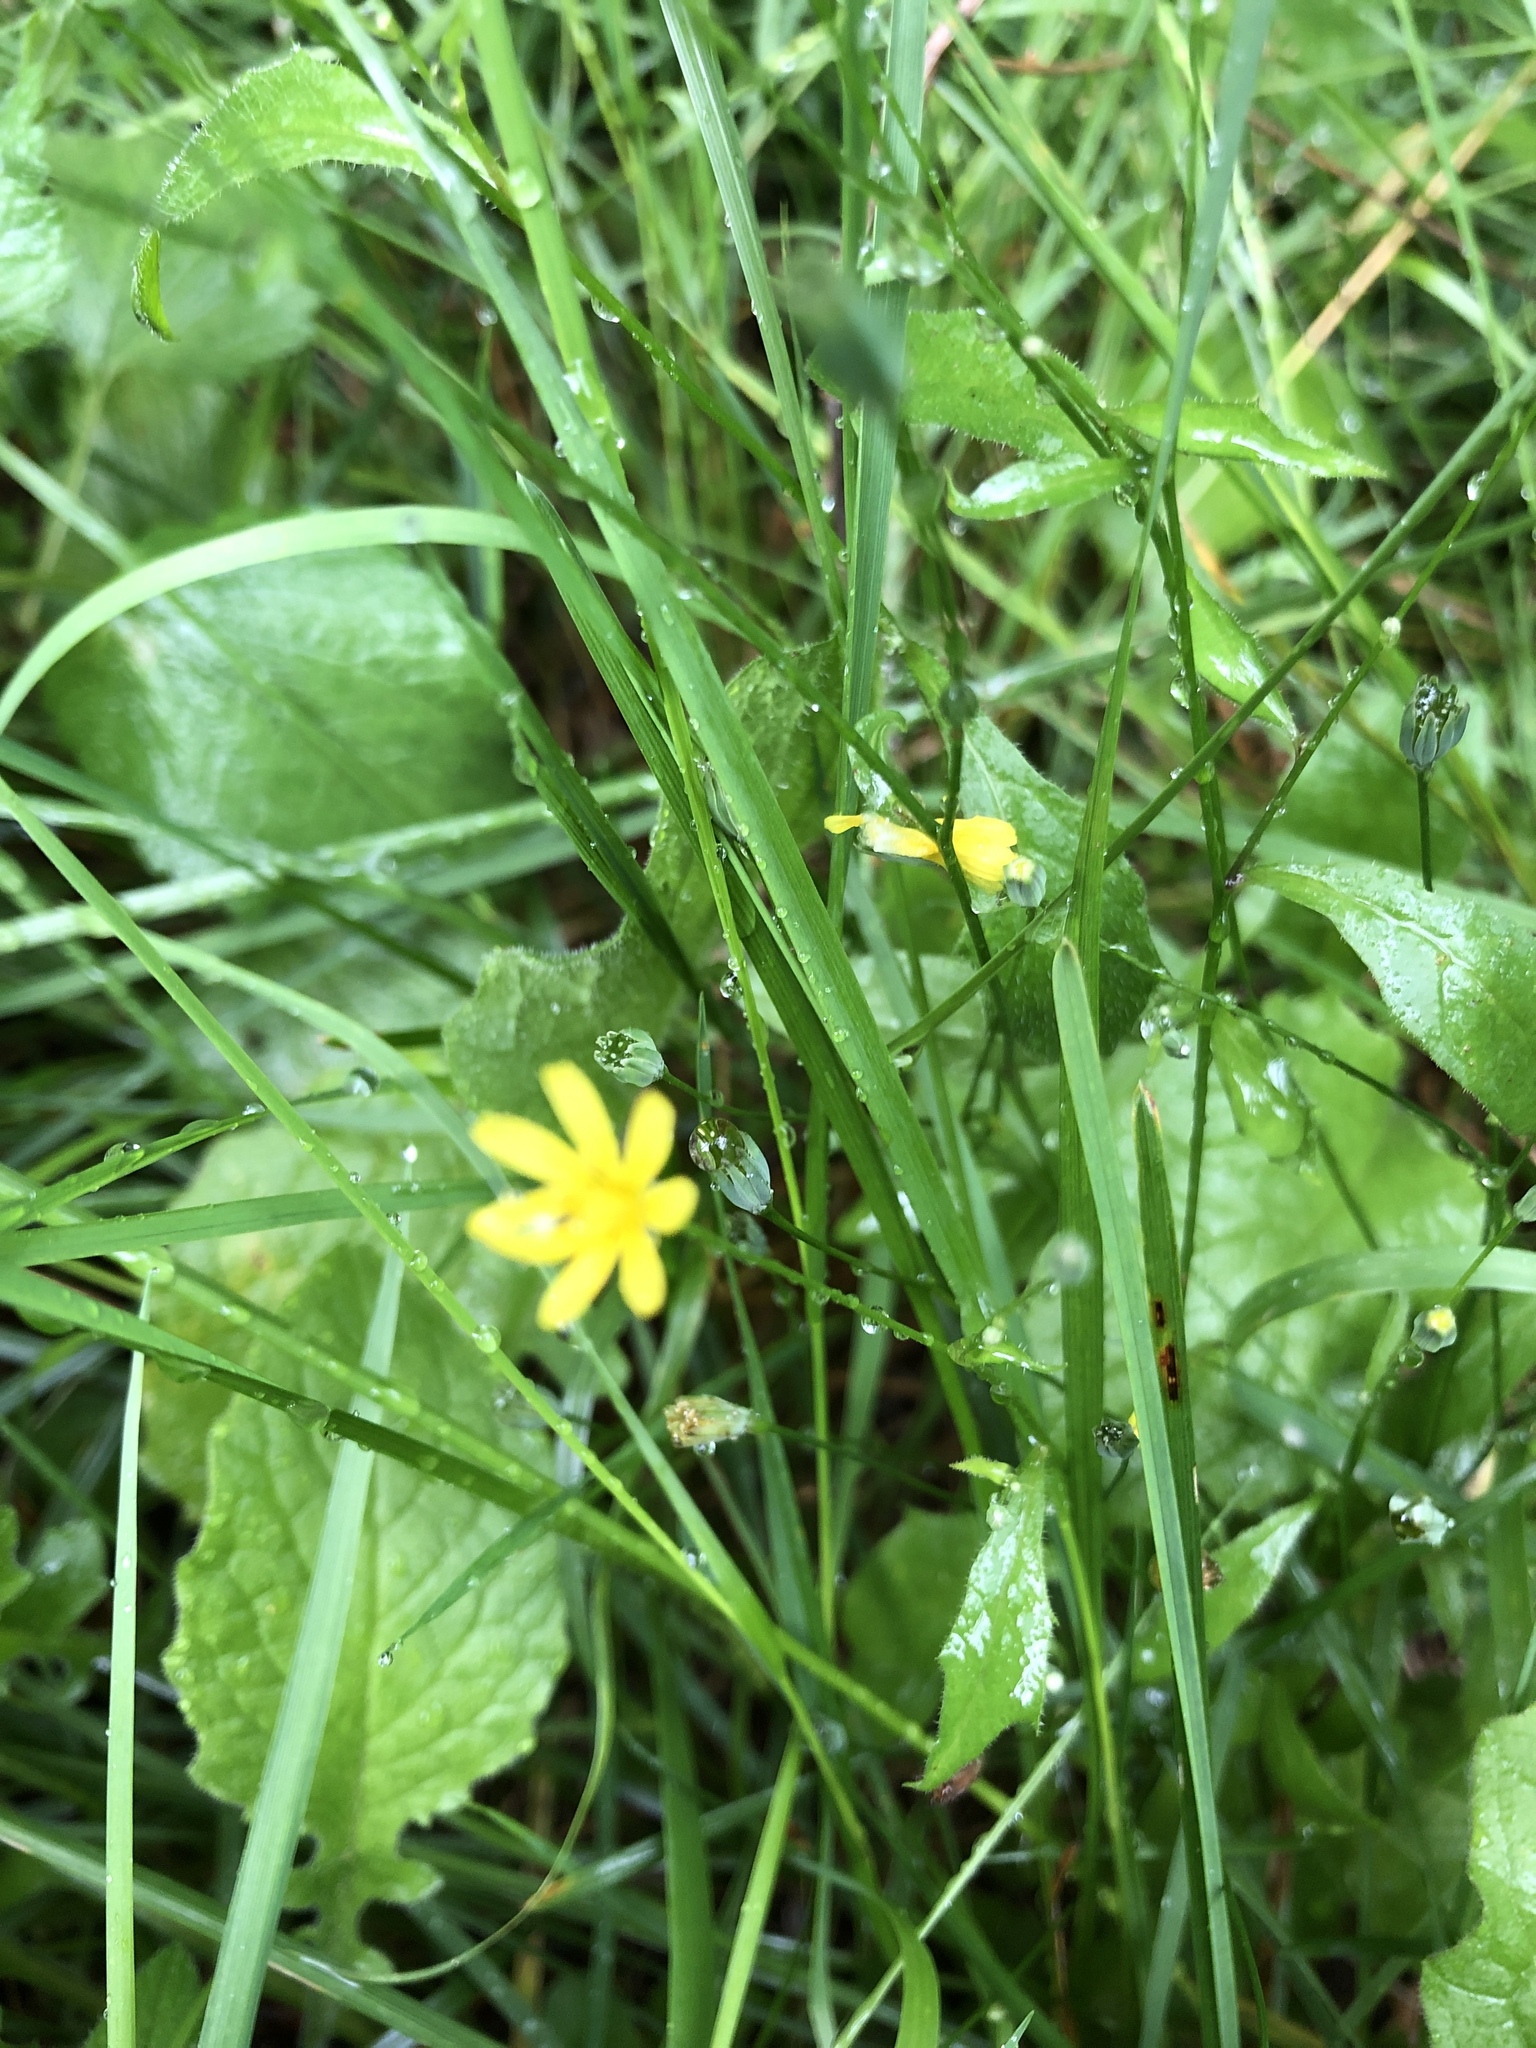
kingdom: Plantae
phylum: Tracheophyta
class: Magnoliopsida
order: Asterales
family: Asteraceae
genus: Lapsana
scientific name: Lapsana communis
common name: Nipplewort
